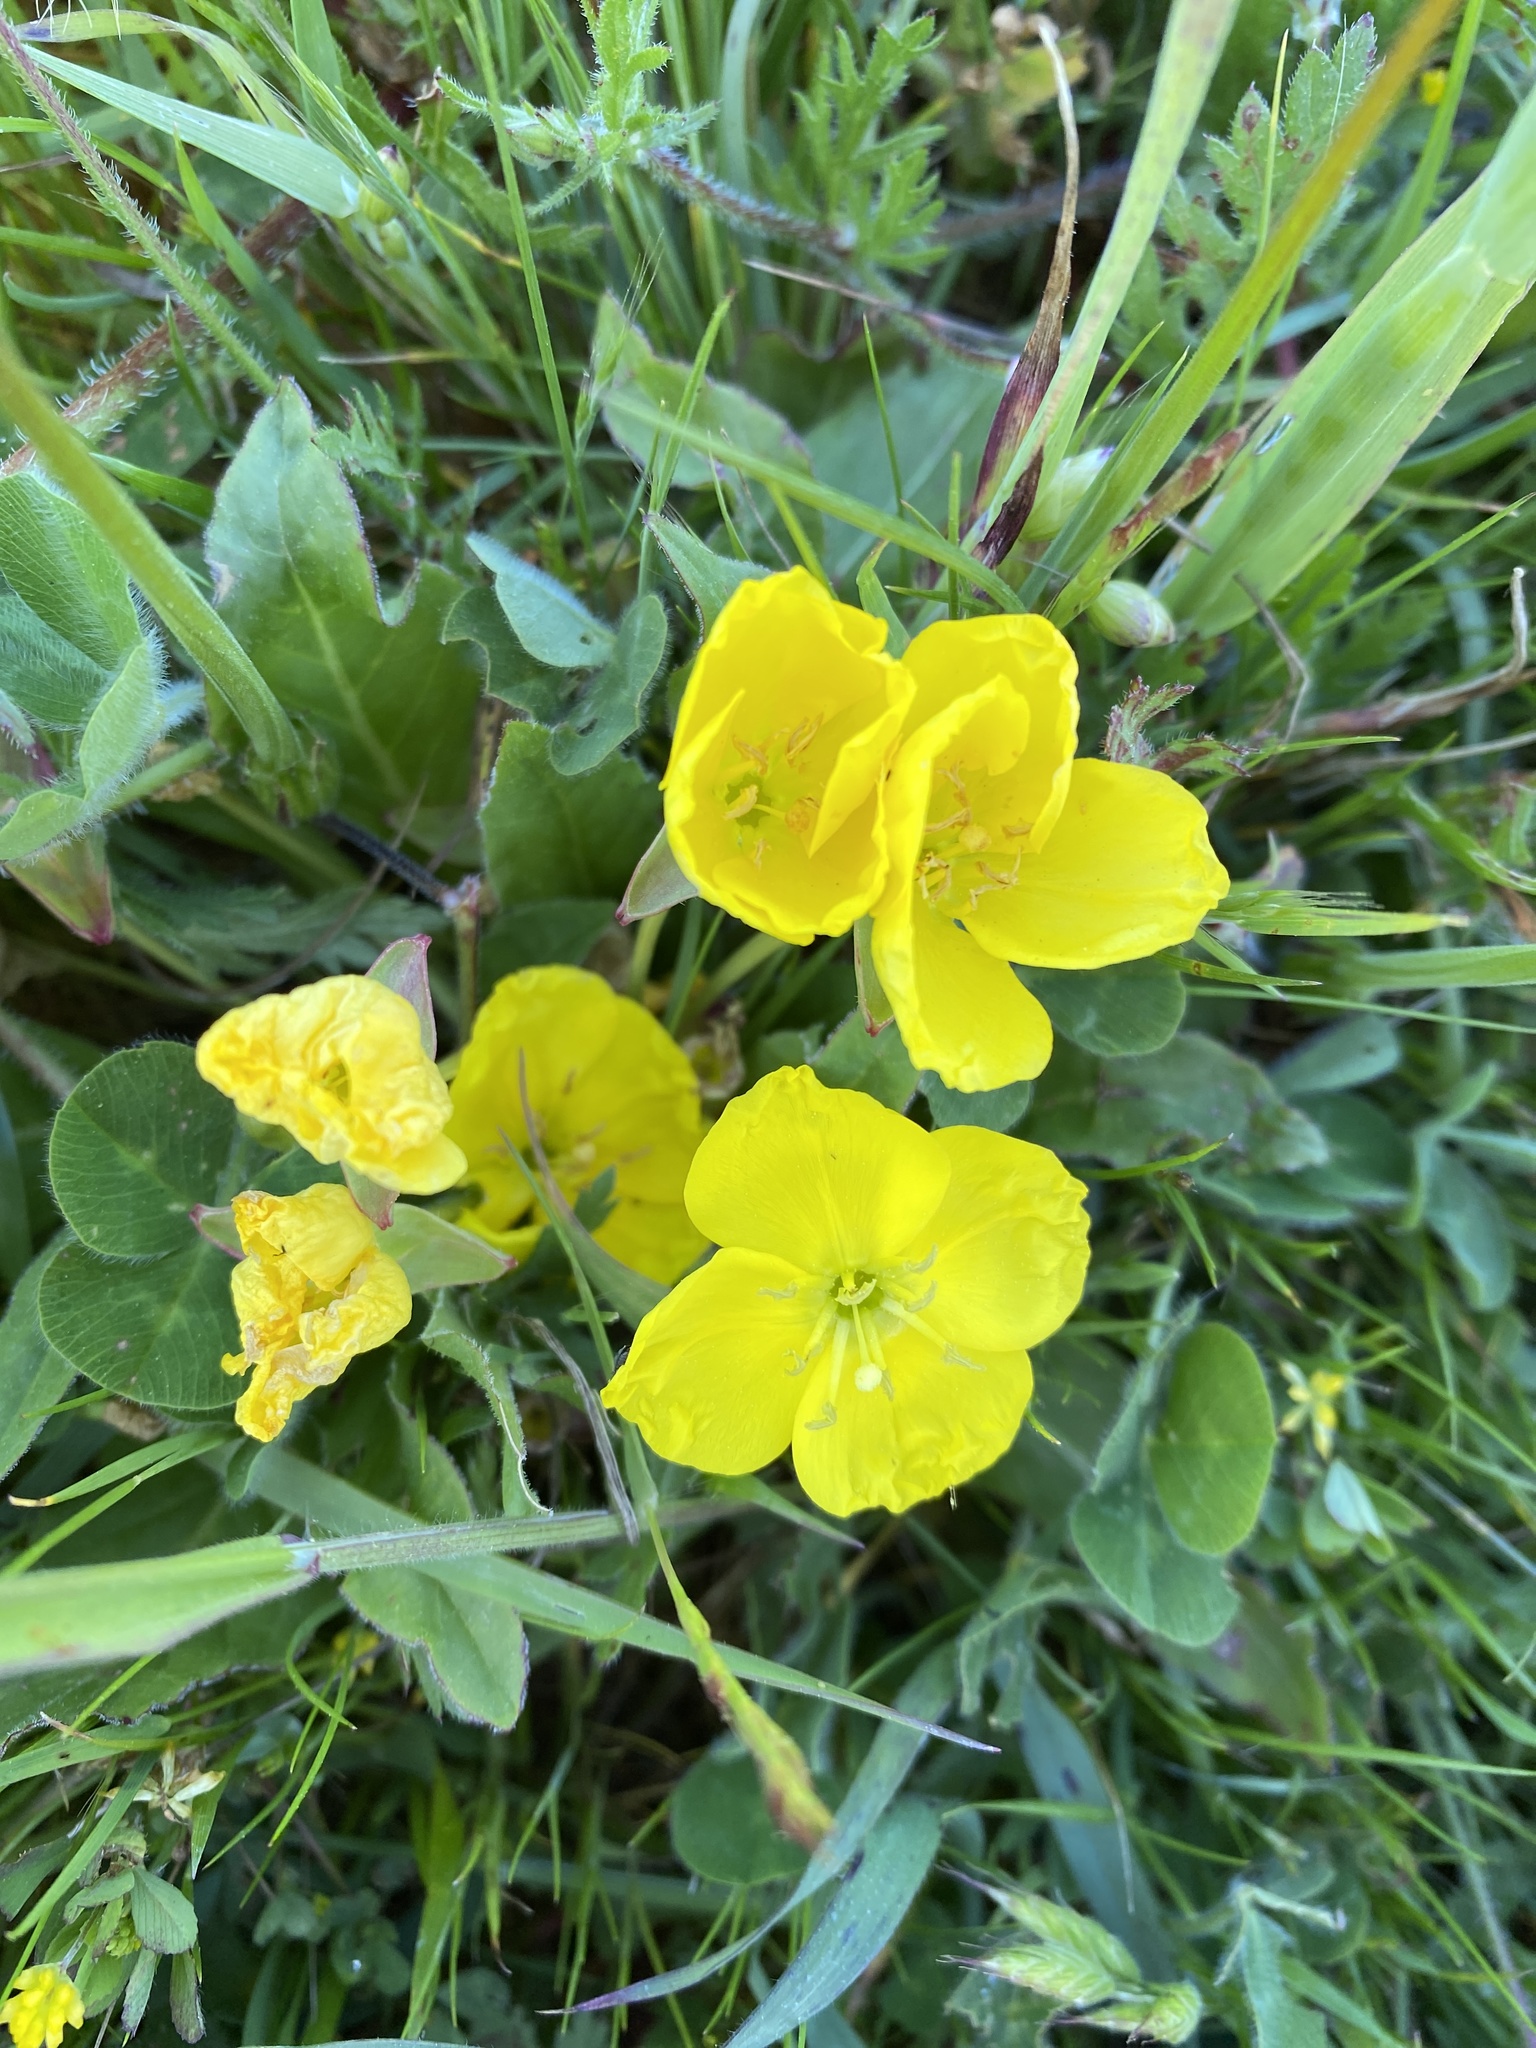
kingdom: Plantae
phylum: Tracheophyta
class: Magnoliopsida
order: Myrtales
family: Onagraceae
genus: Taraxia
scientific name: Taraxia ovata
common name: Goldeneggs
